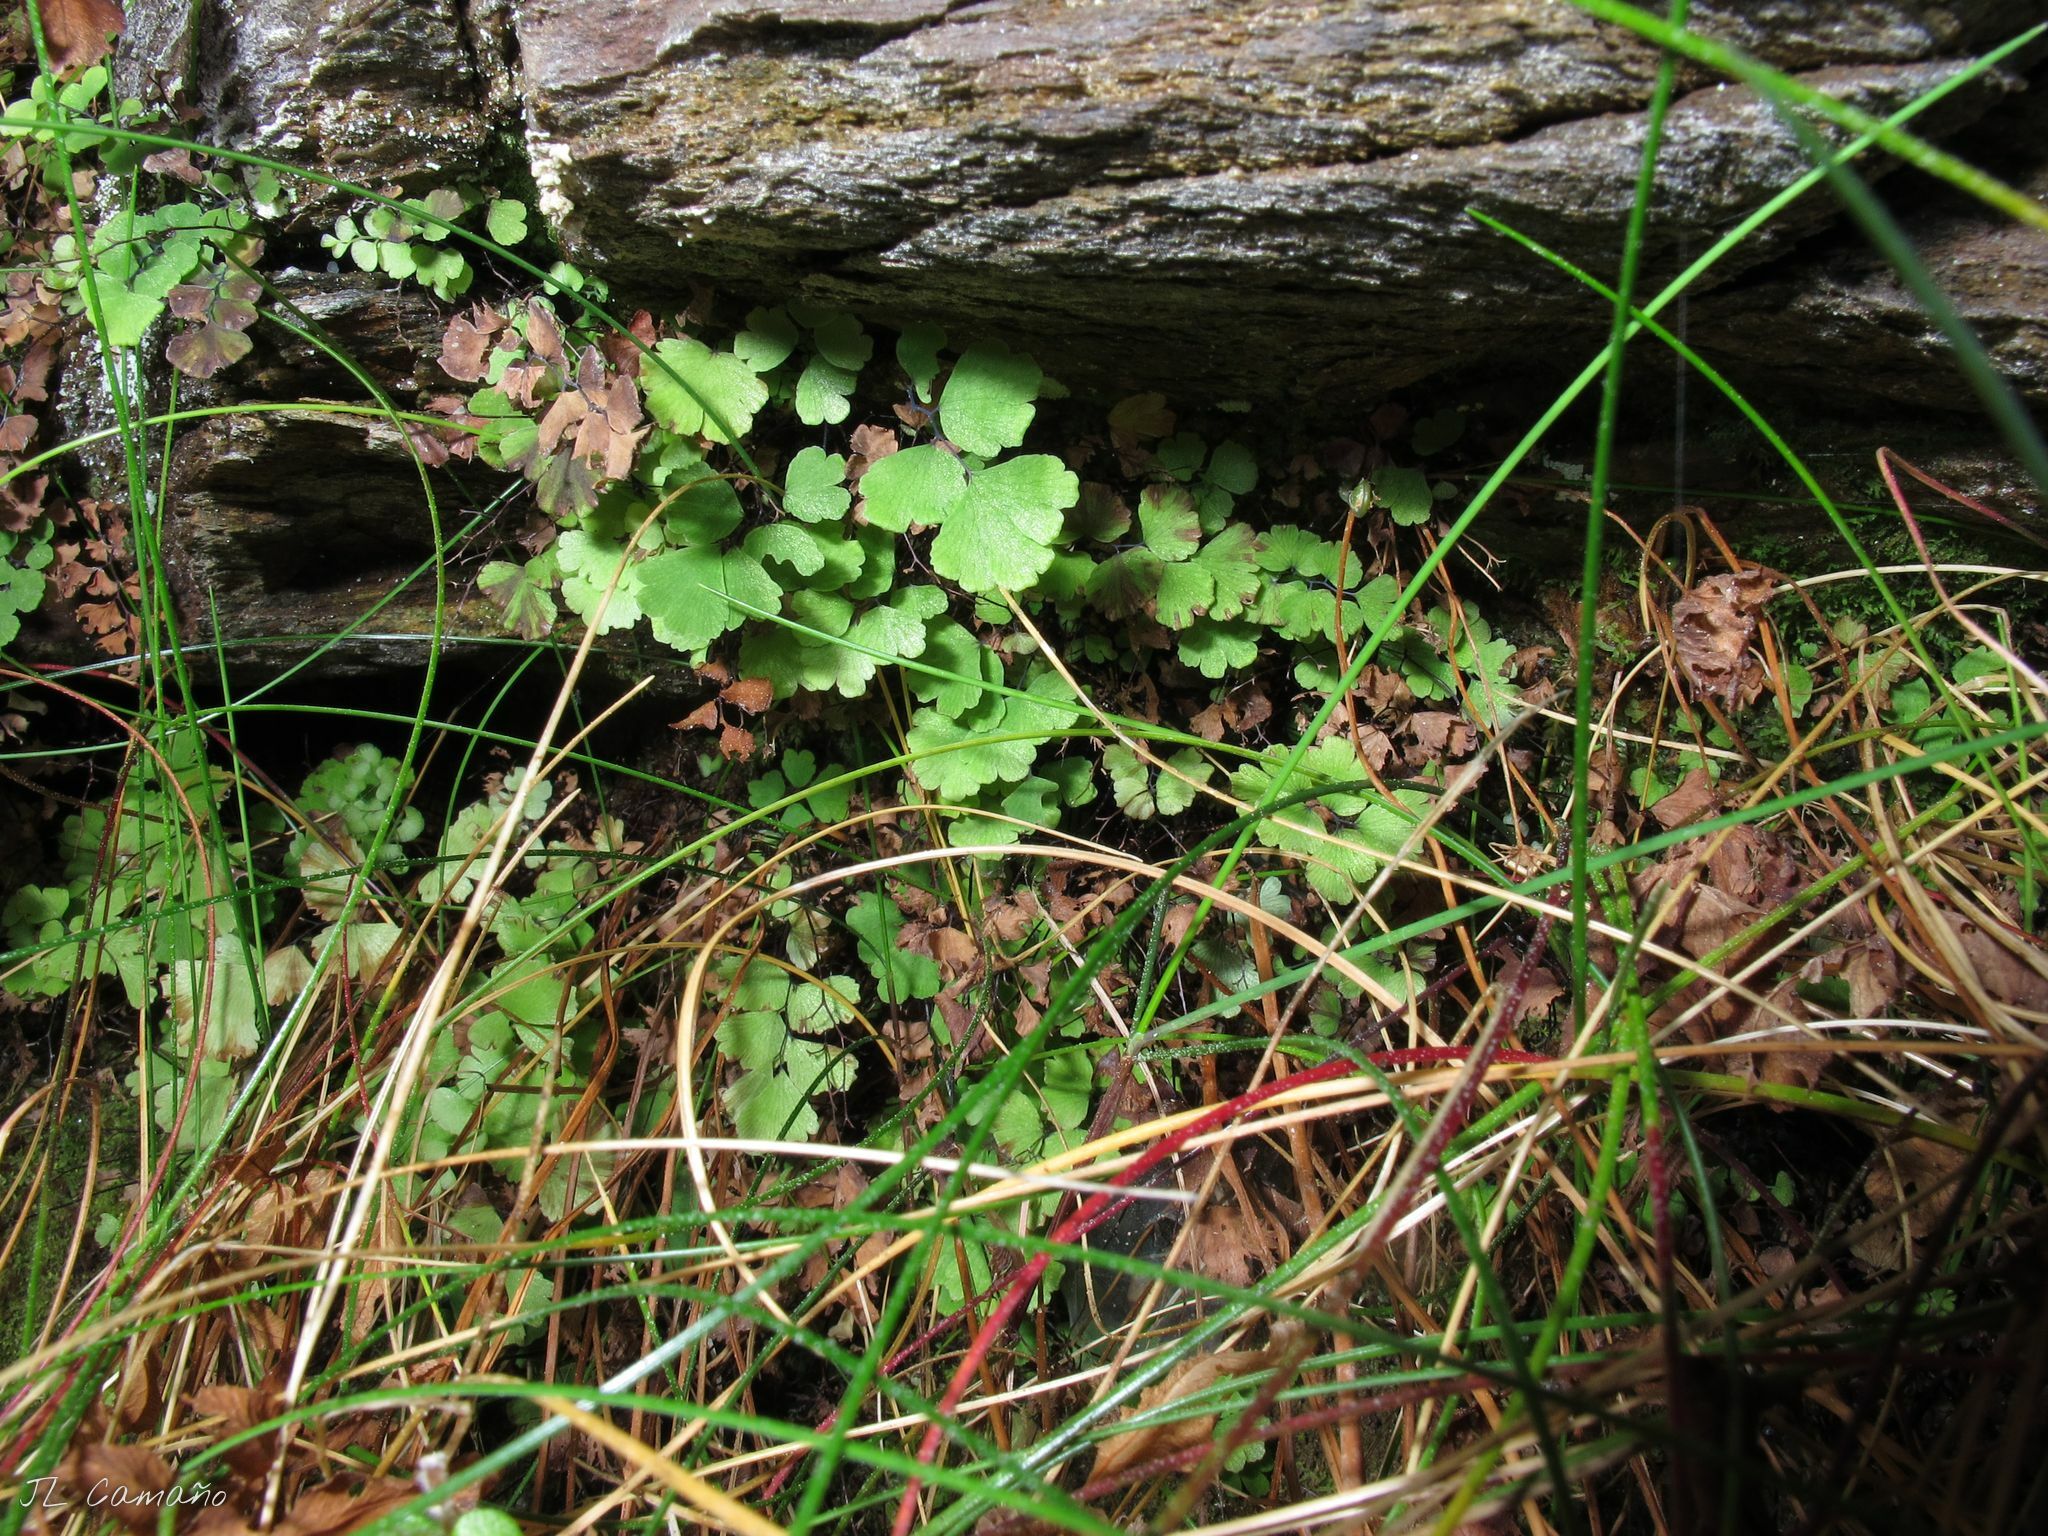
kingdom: Plantae
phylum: Tracheophyta
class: Polypodiopsida
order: Polypodiales
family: Pteridaceae
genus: Adiantum
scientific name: Adiantum capillus-veneris
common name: Maidenhair fern
